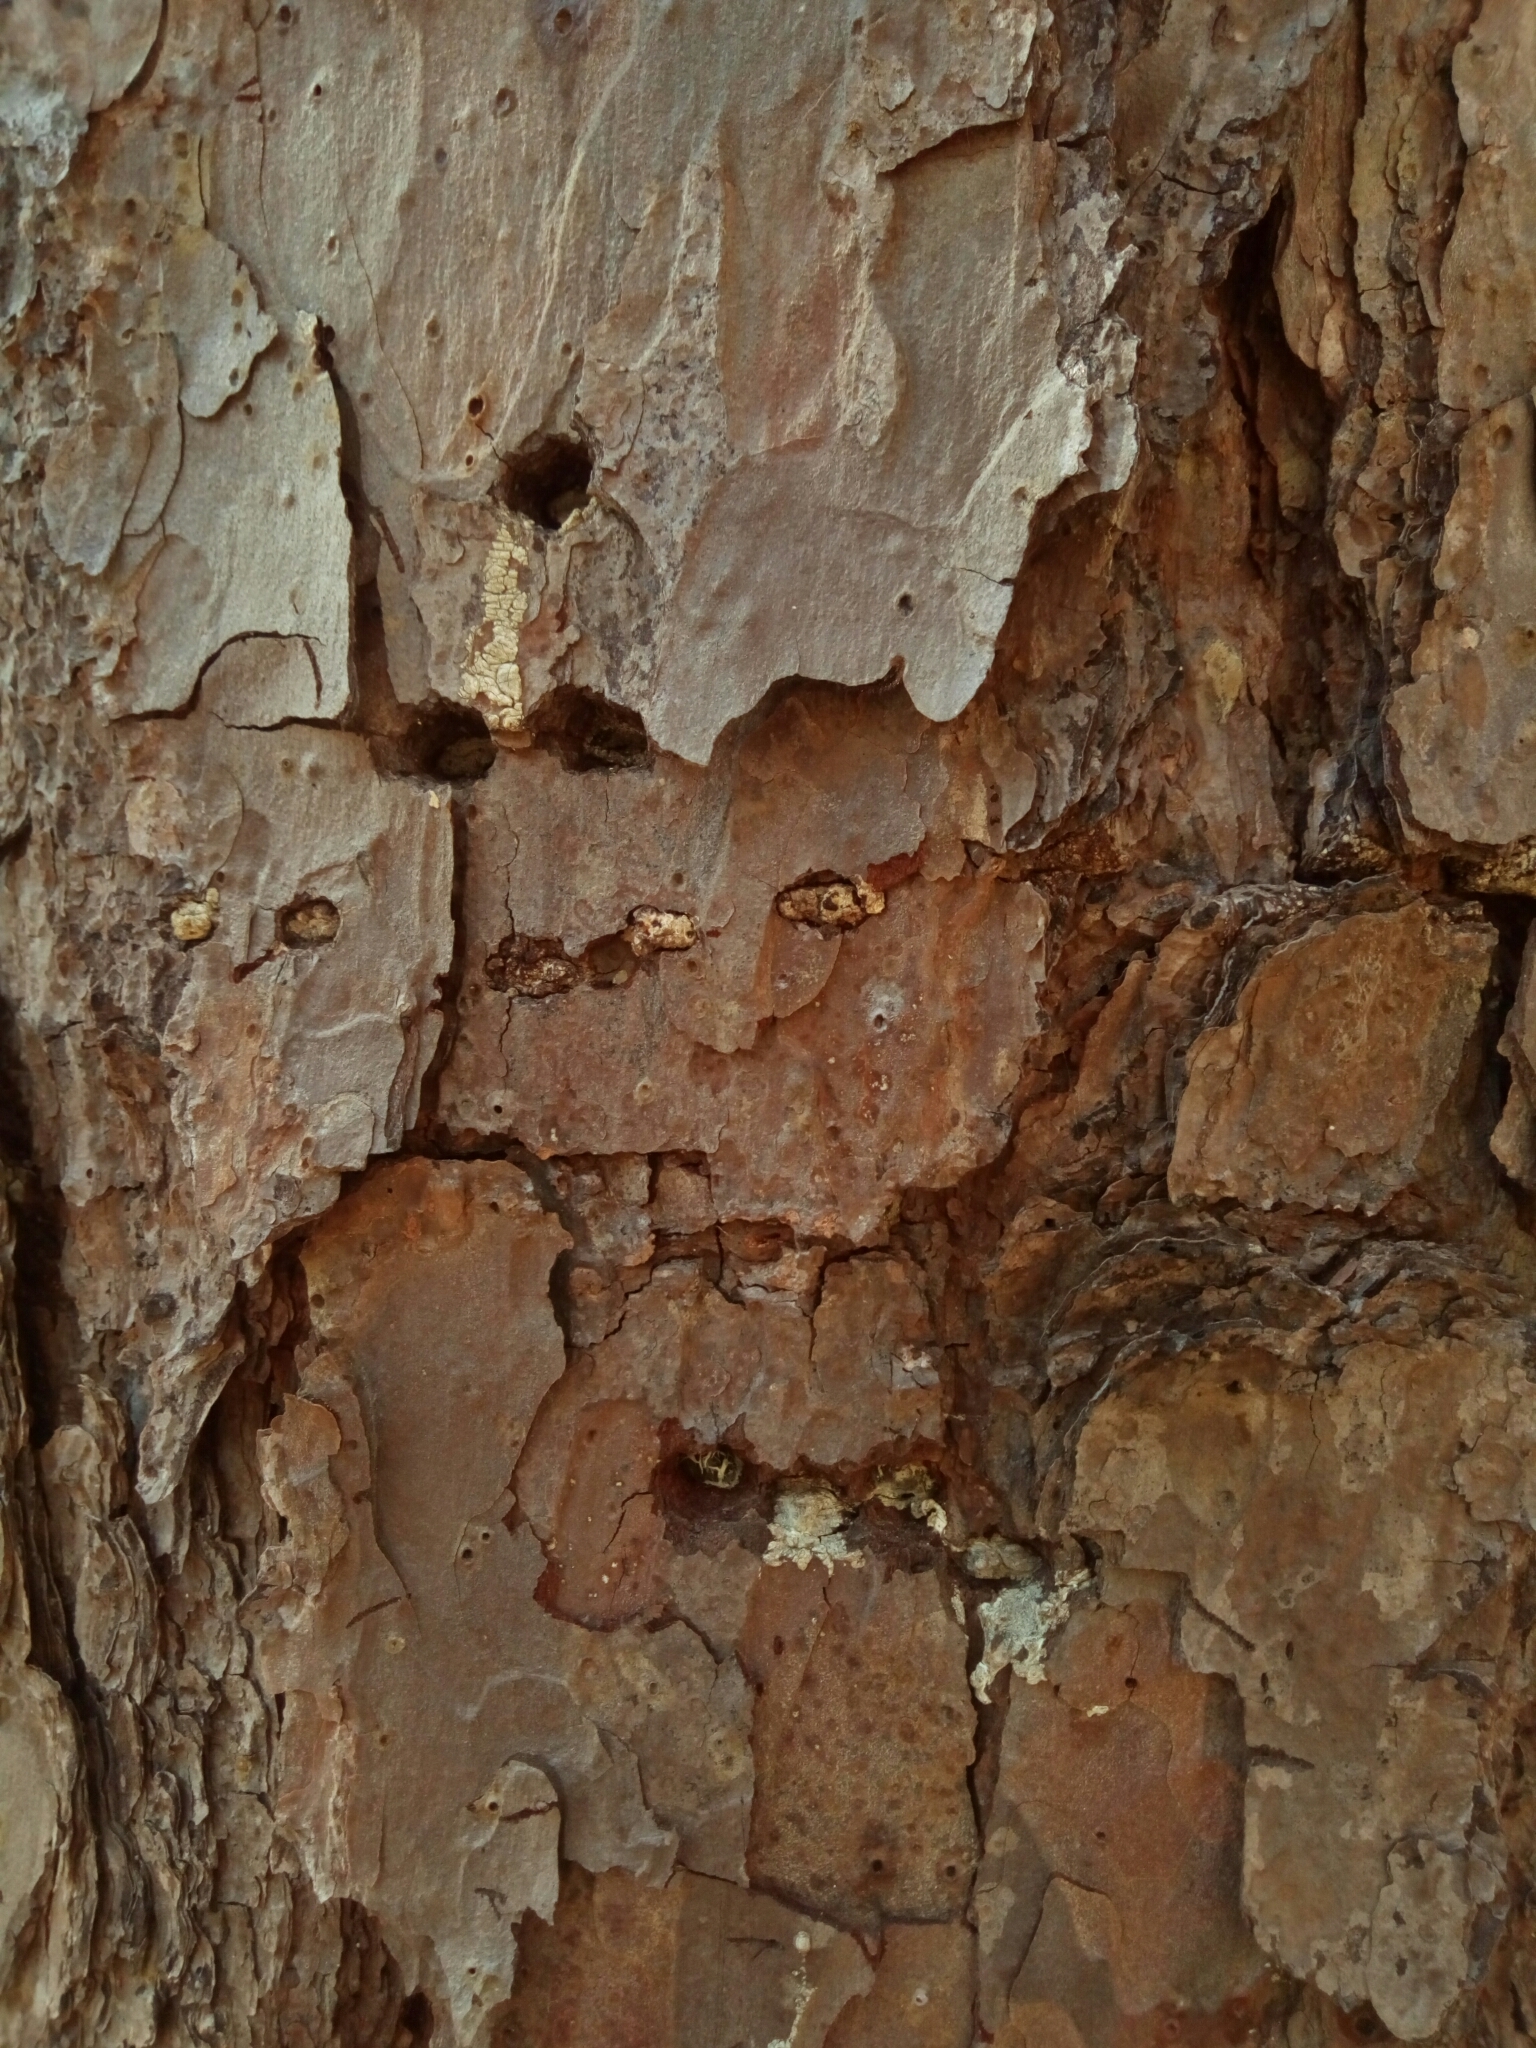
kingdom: Animalia
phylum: Chordata
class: Aves
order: Piciformes
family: Picidae
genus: Sphyrapicus
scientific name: Sphyrapicus varius
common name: Yellow-bellied sapsucker
